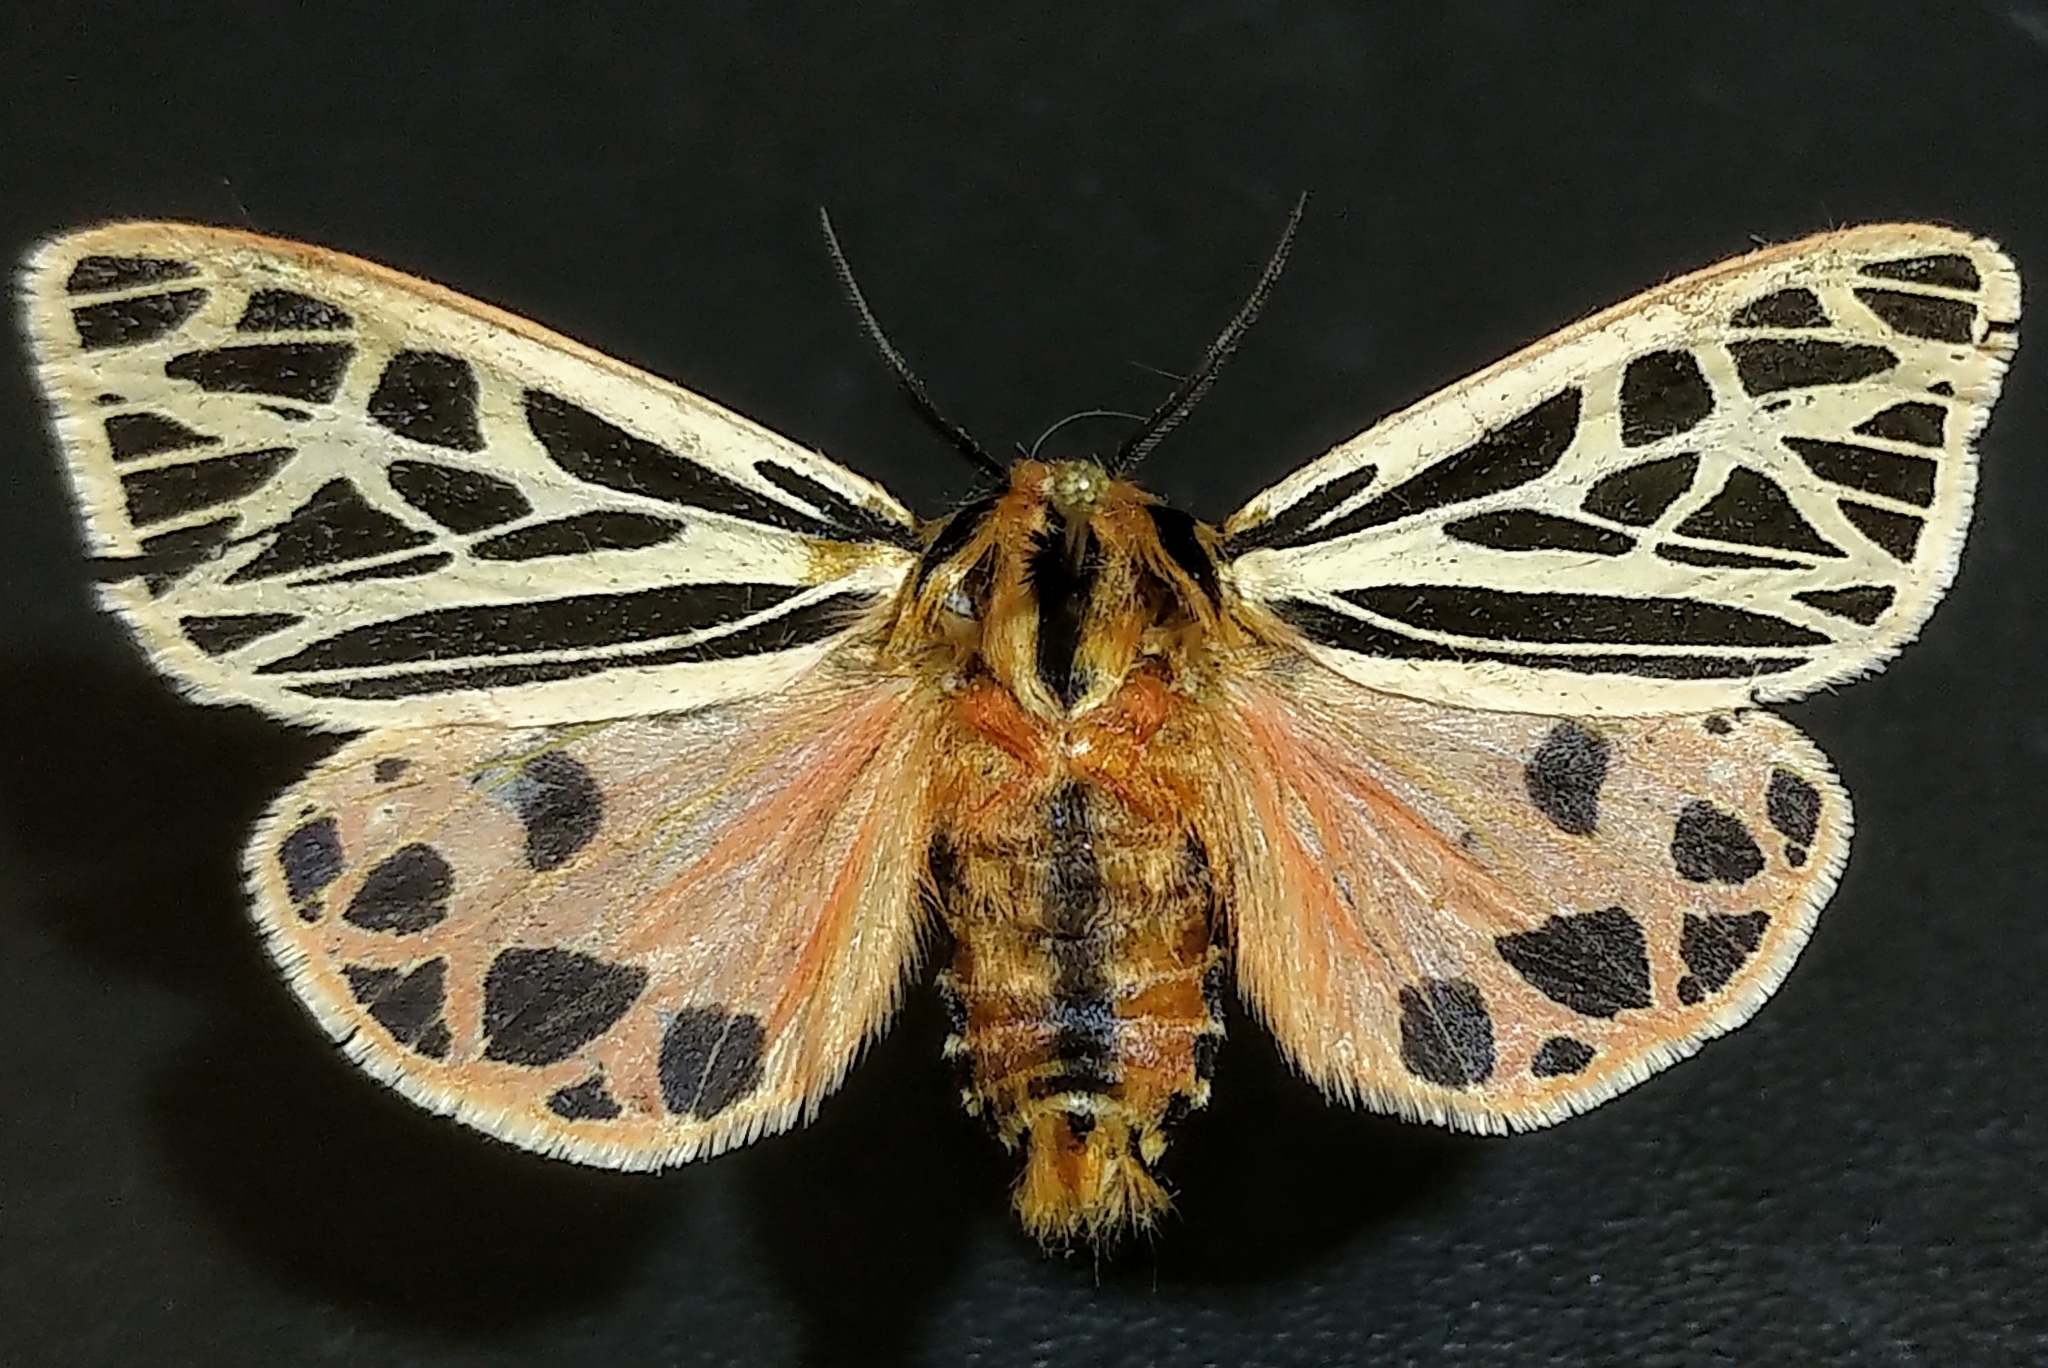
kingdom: Animalia
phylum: Arthropoda
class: Insecta
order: Lepidoptera
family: Erebidae
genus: Apantesis
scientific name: Apantesis
